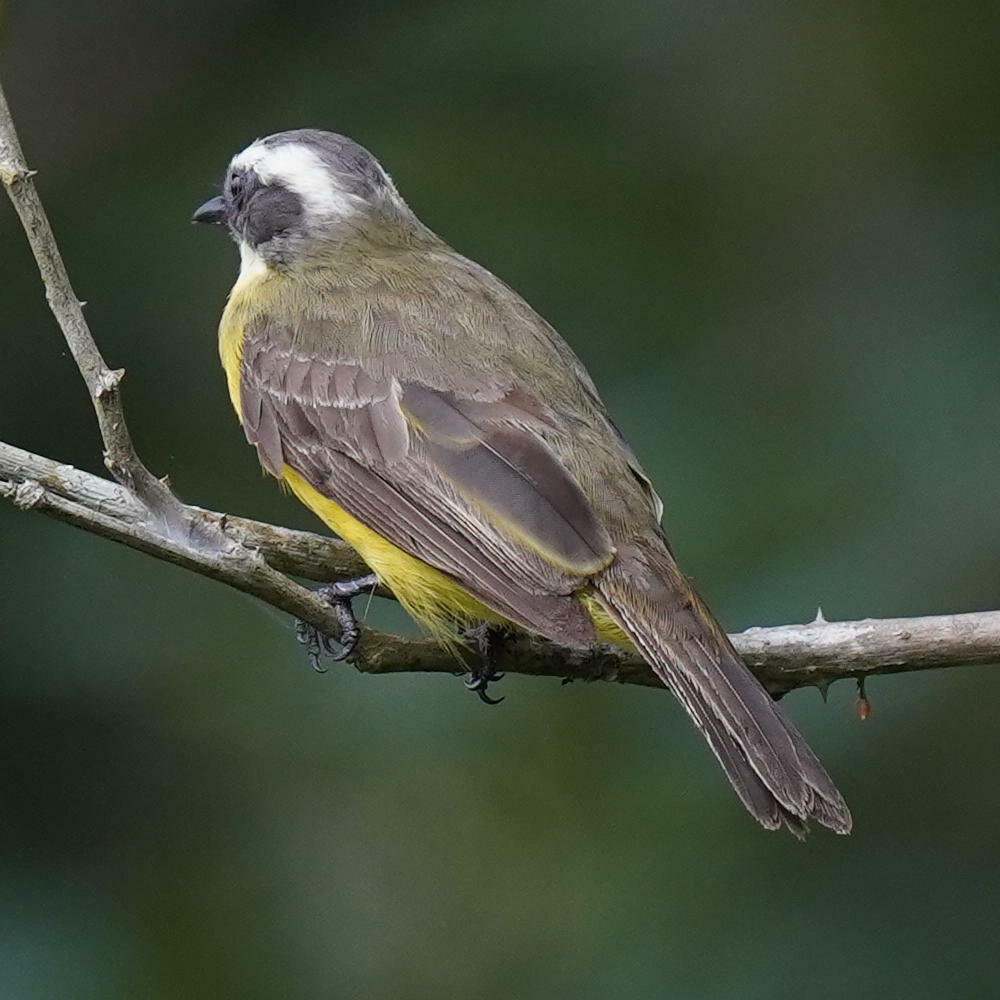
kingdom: Animalia
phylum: Chordata
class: Aves
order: Passeriformes
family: Tyrannidae
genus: Myiozetetes
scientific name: Myiozetetes similis
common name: Social flycatcher
